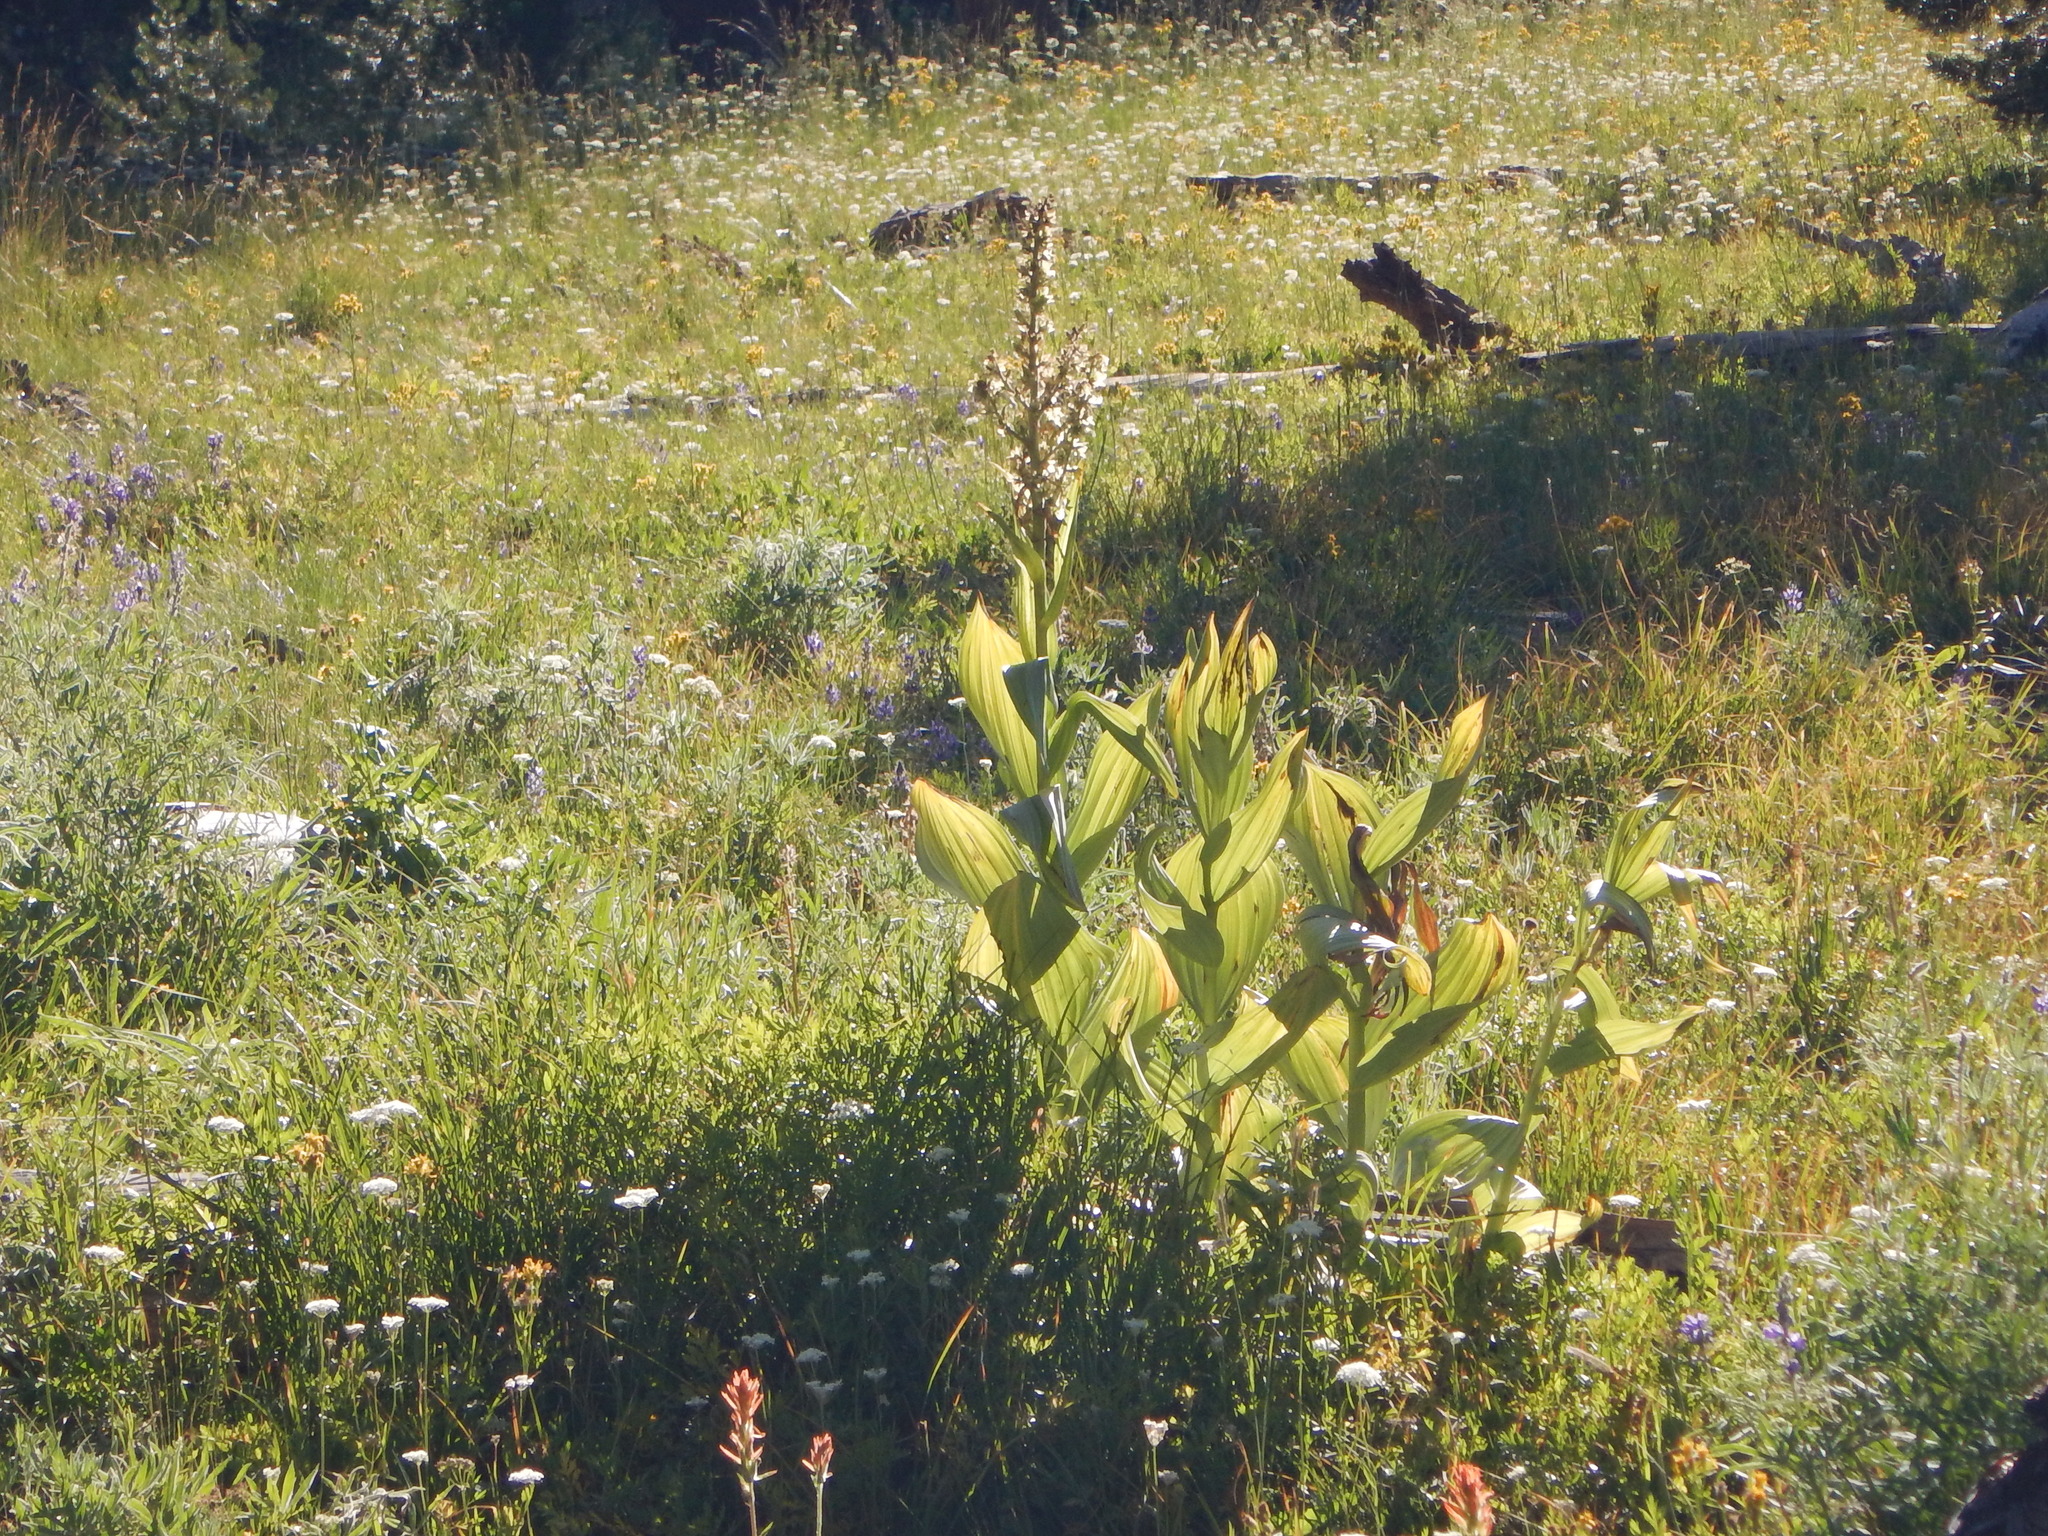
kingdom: Plantae
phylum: Tracheophyta
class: Liliopsida
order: Liliales
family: Melanthiaceae
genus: Veratrum
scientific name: Veratrum californicum
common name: California veratrum
